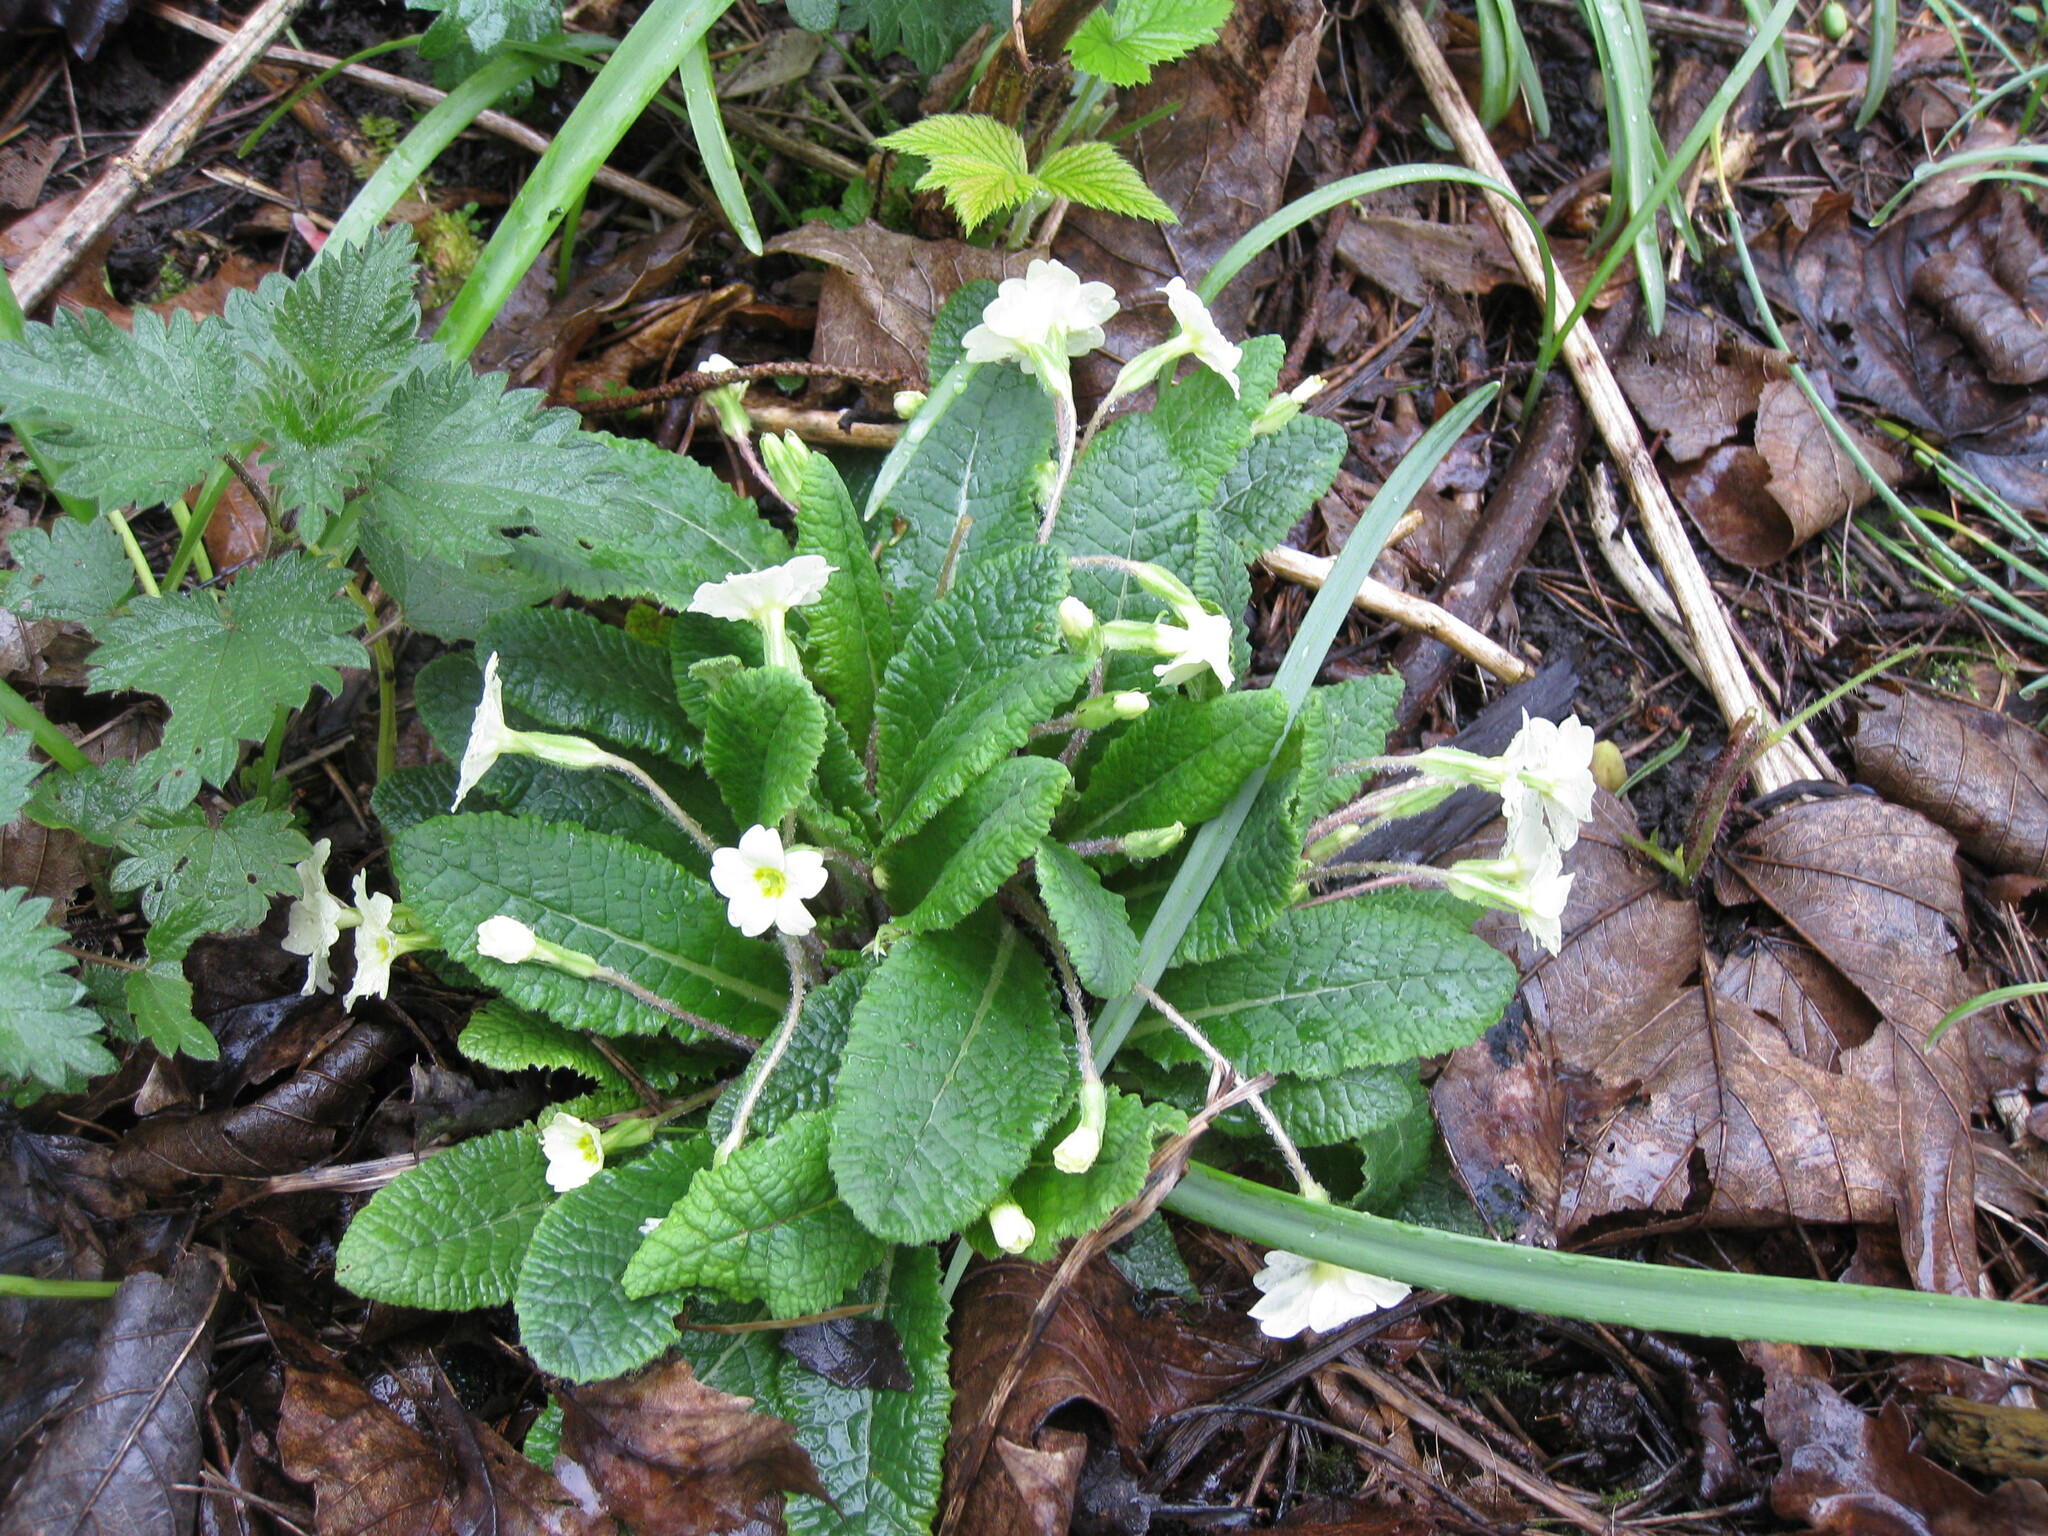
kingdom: Plantae
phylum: Tracheophyta
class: Magnoliopsida
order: Ericales
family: Primulaceae
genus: Primula
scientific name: Primula vulgaris
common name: Primrose
